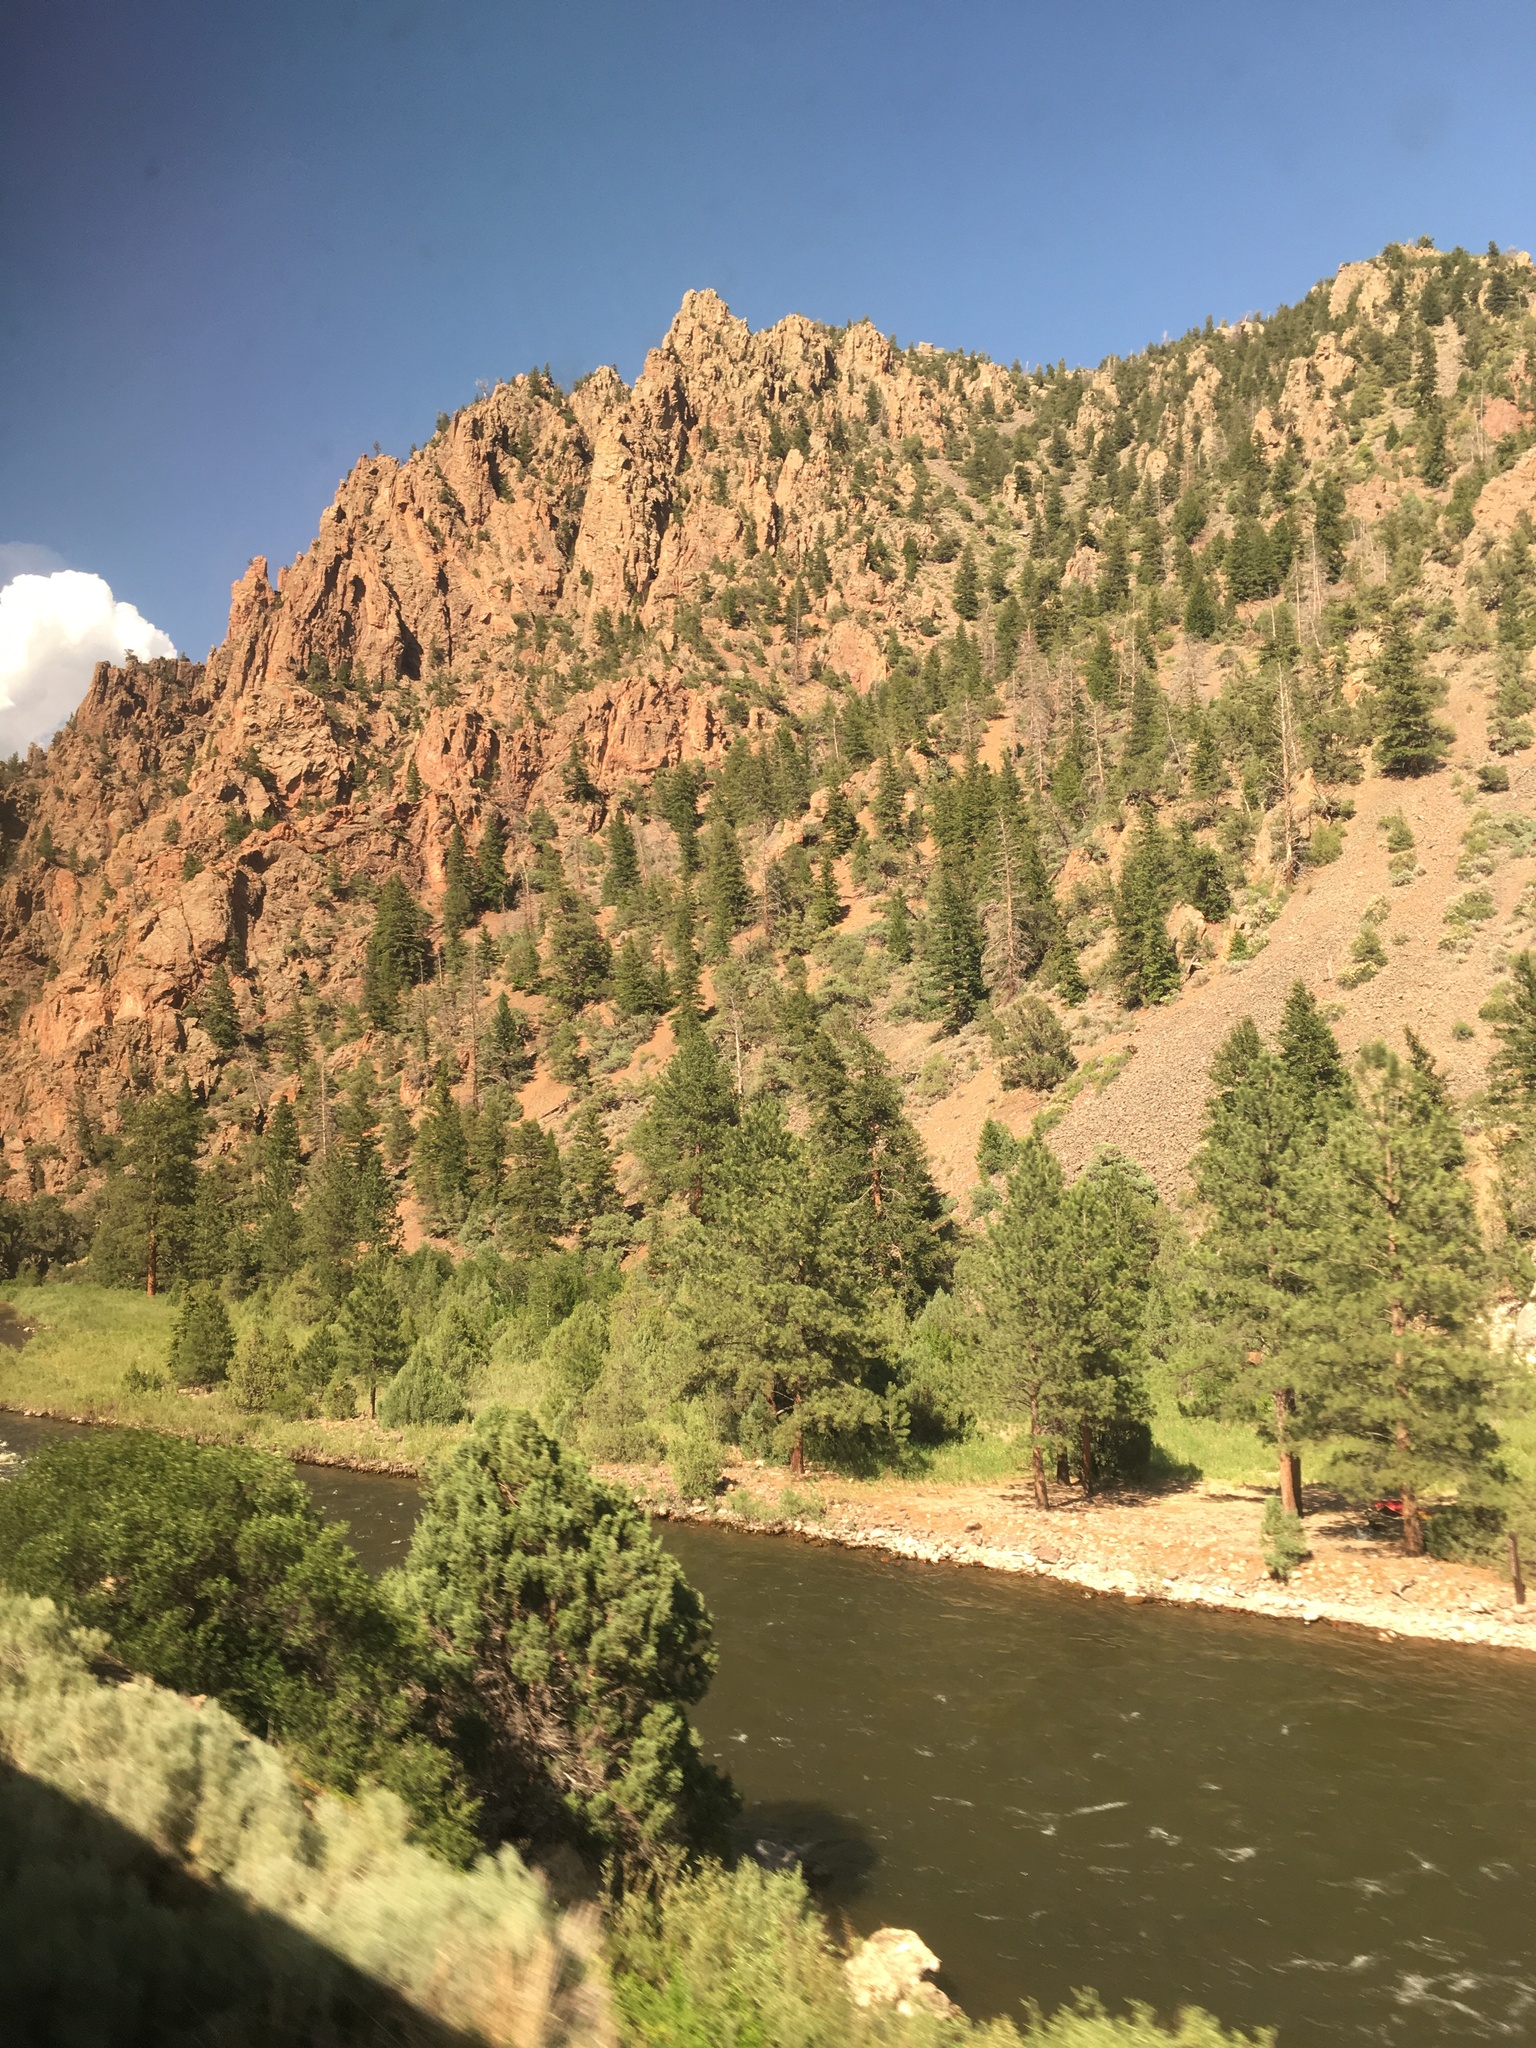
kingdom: Plantae
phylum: Tracheophyta
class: Pinopsida
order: Pinales
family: Pinaceae
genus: Pinus
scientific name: Pinus ponderosa
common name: Western yellow-pine
